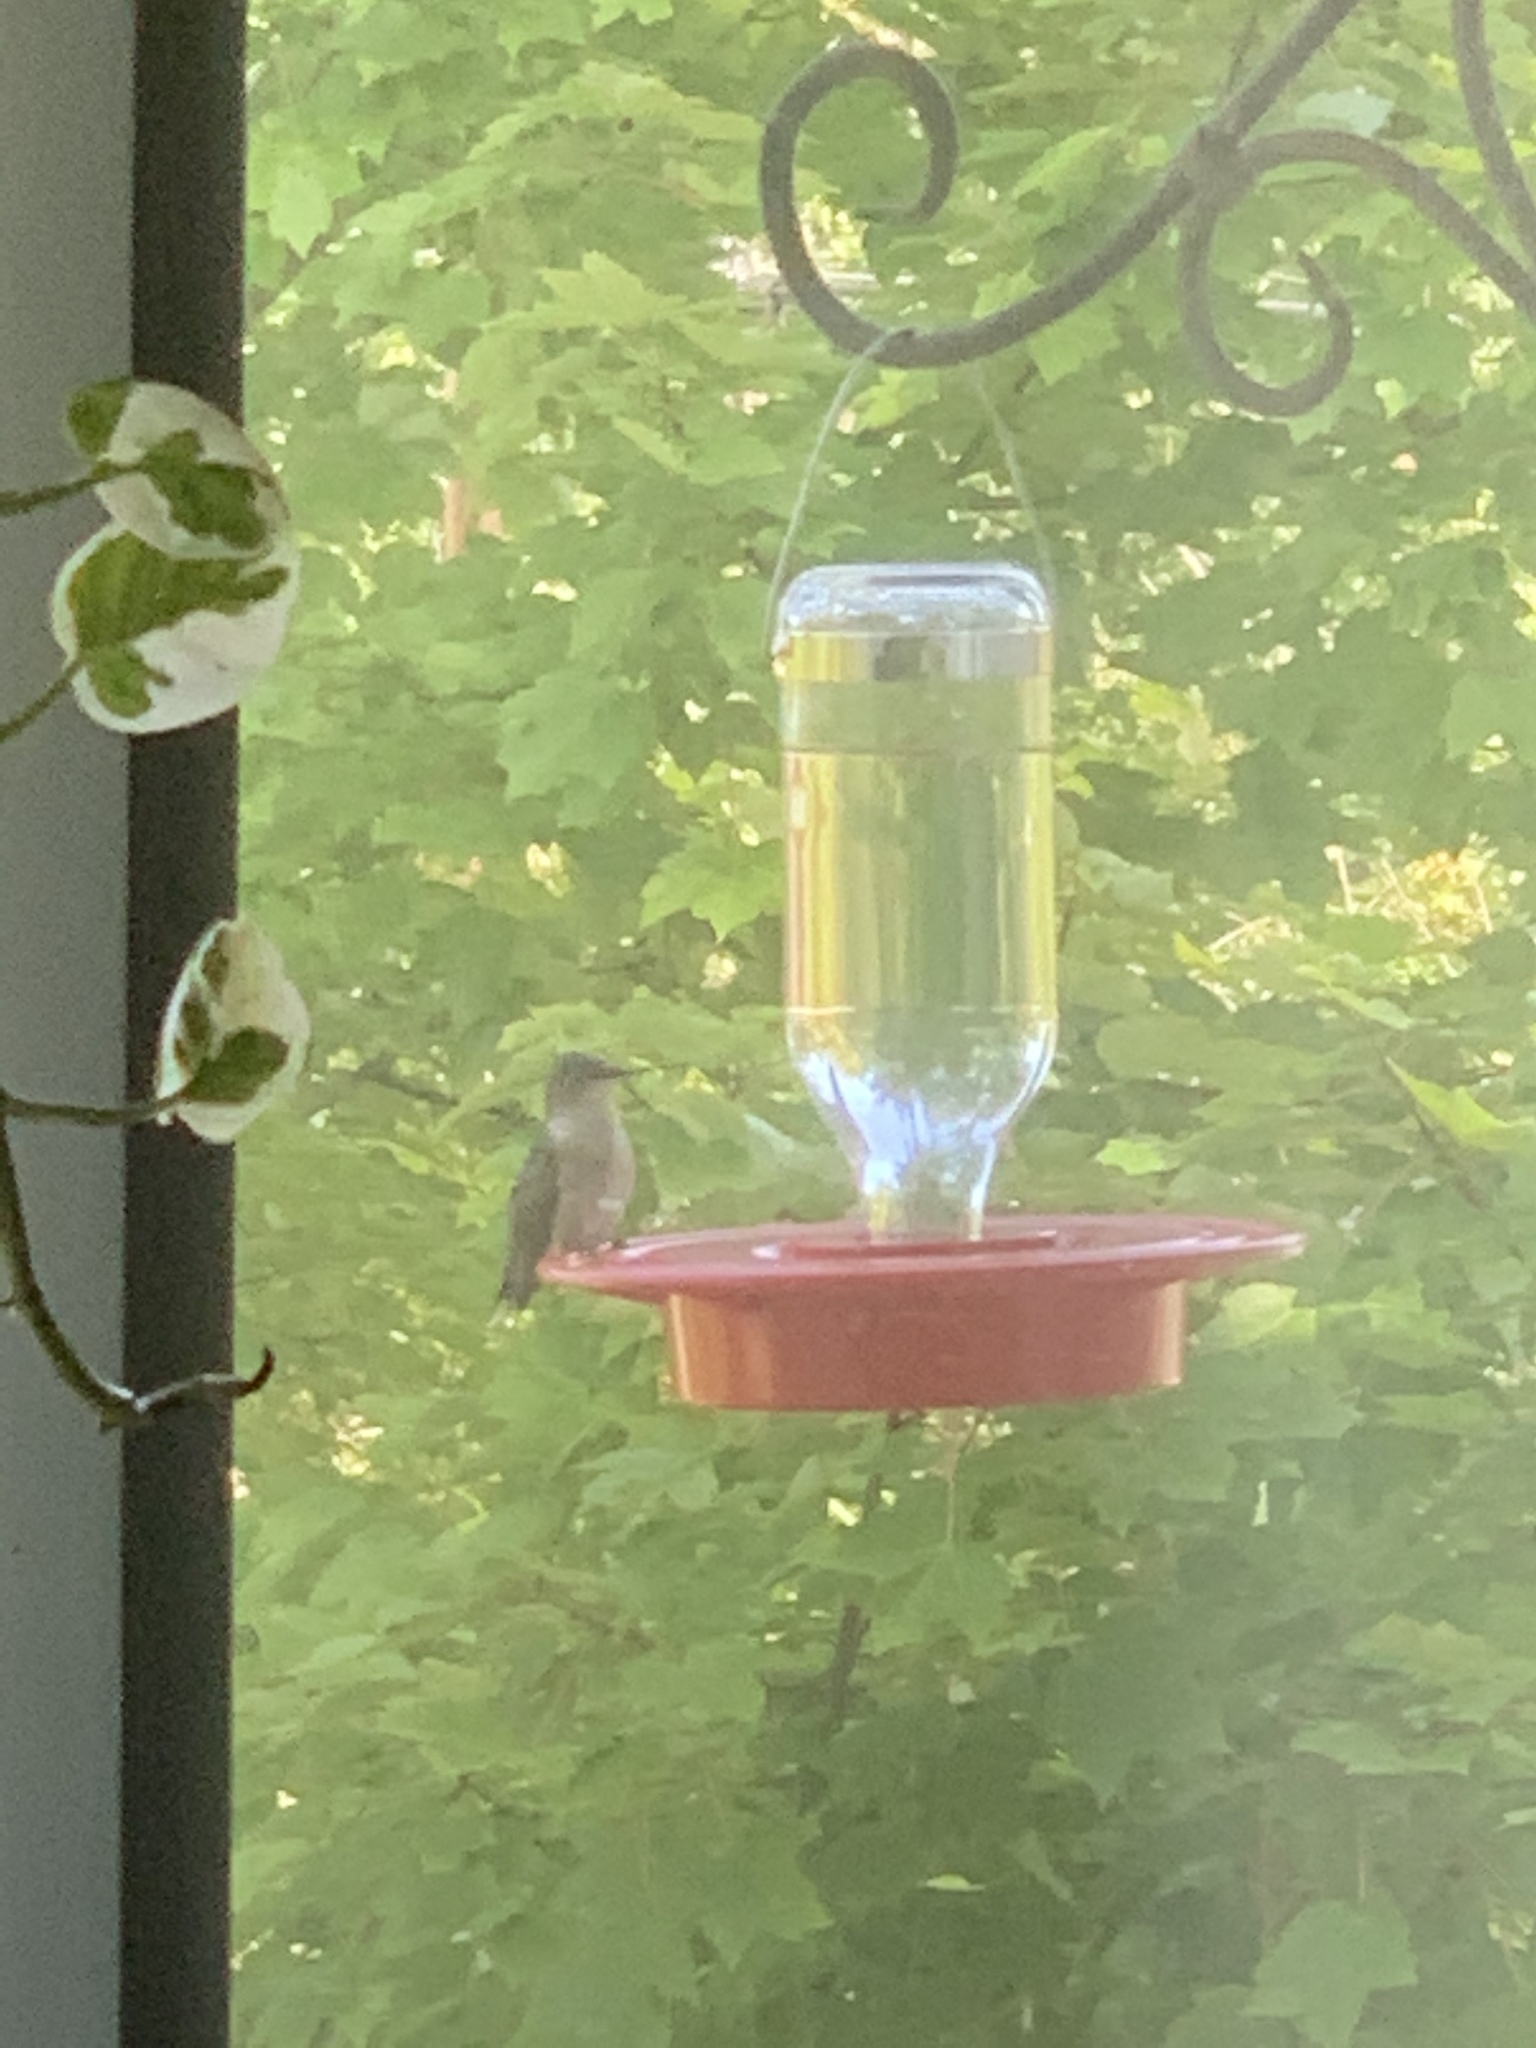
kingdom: Animalia
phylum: Chordata
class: Aves
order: Apodiformes
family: Trochilidae
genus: Archilochus
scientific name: Archilochus colubris
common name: Ruby-throated hummingbird
